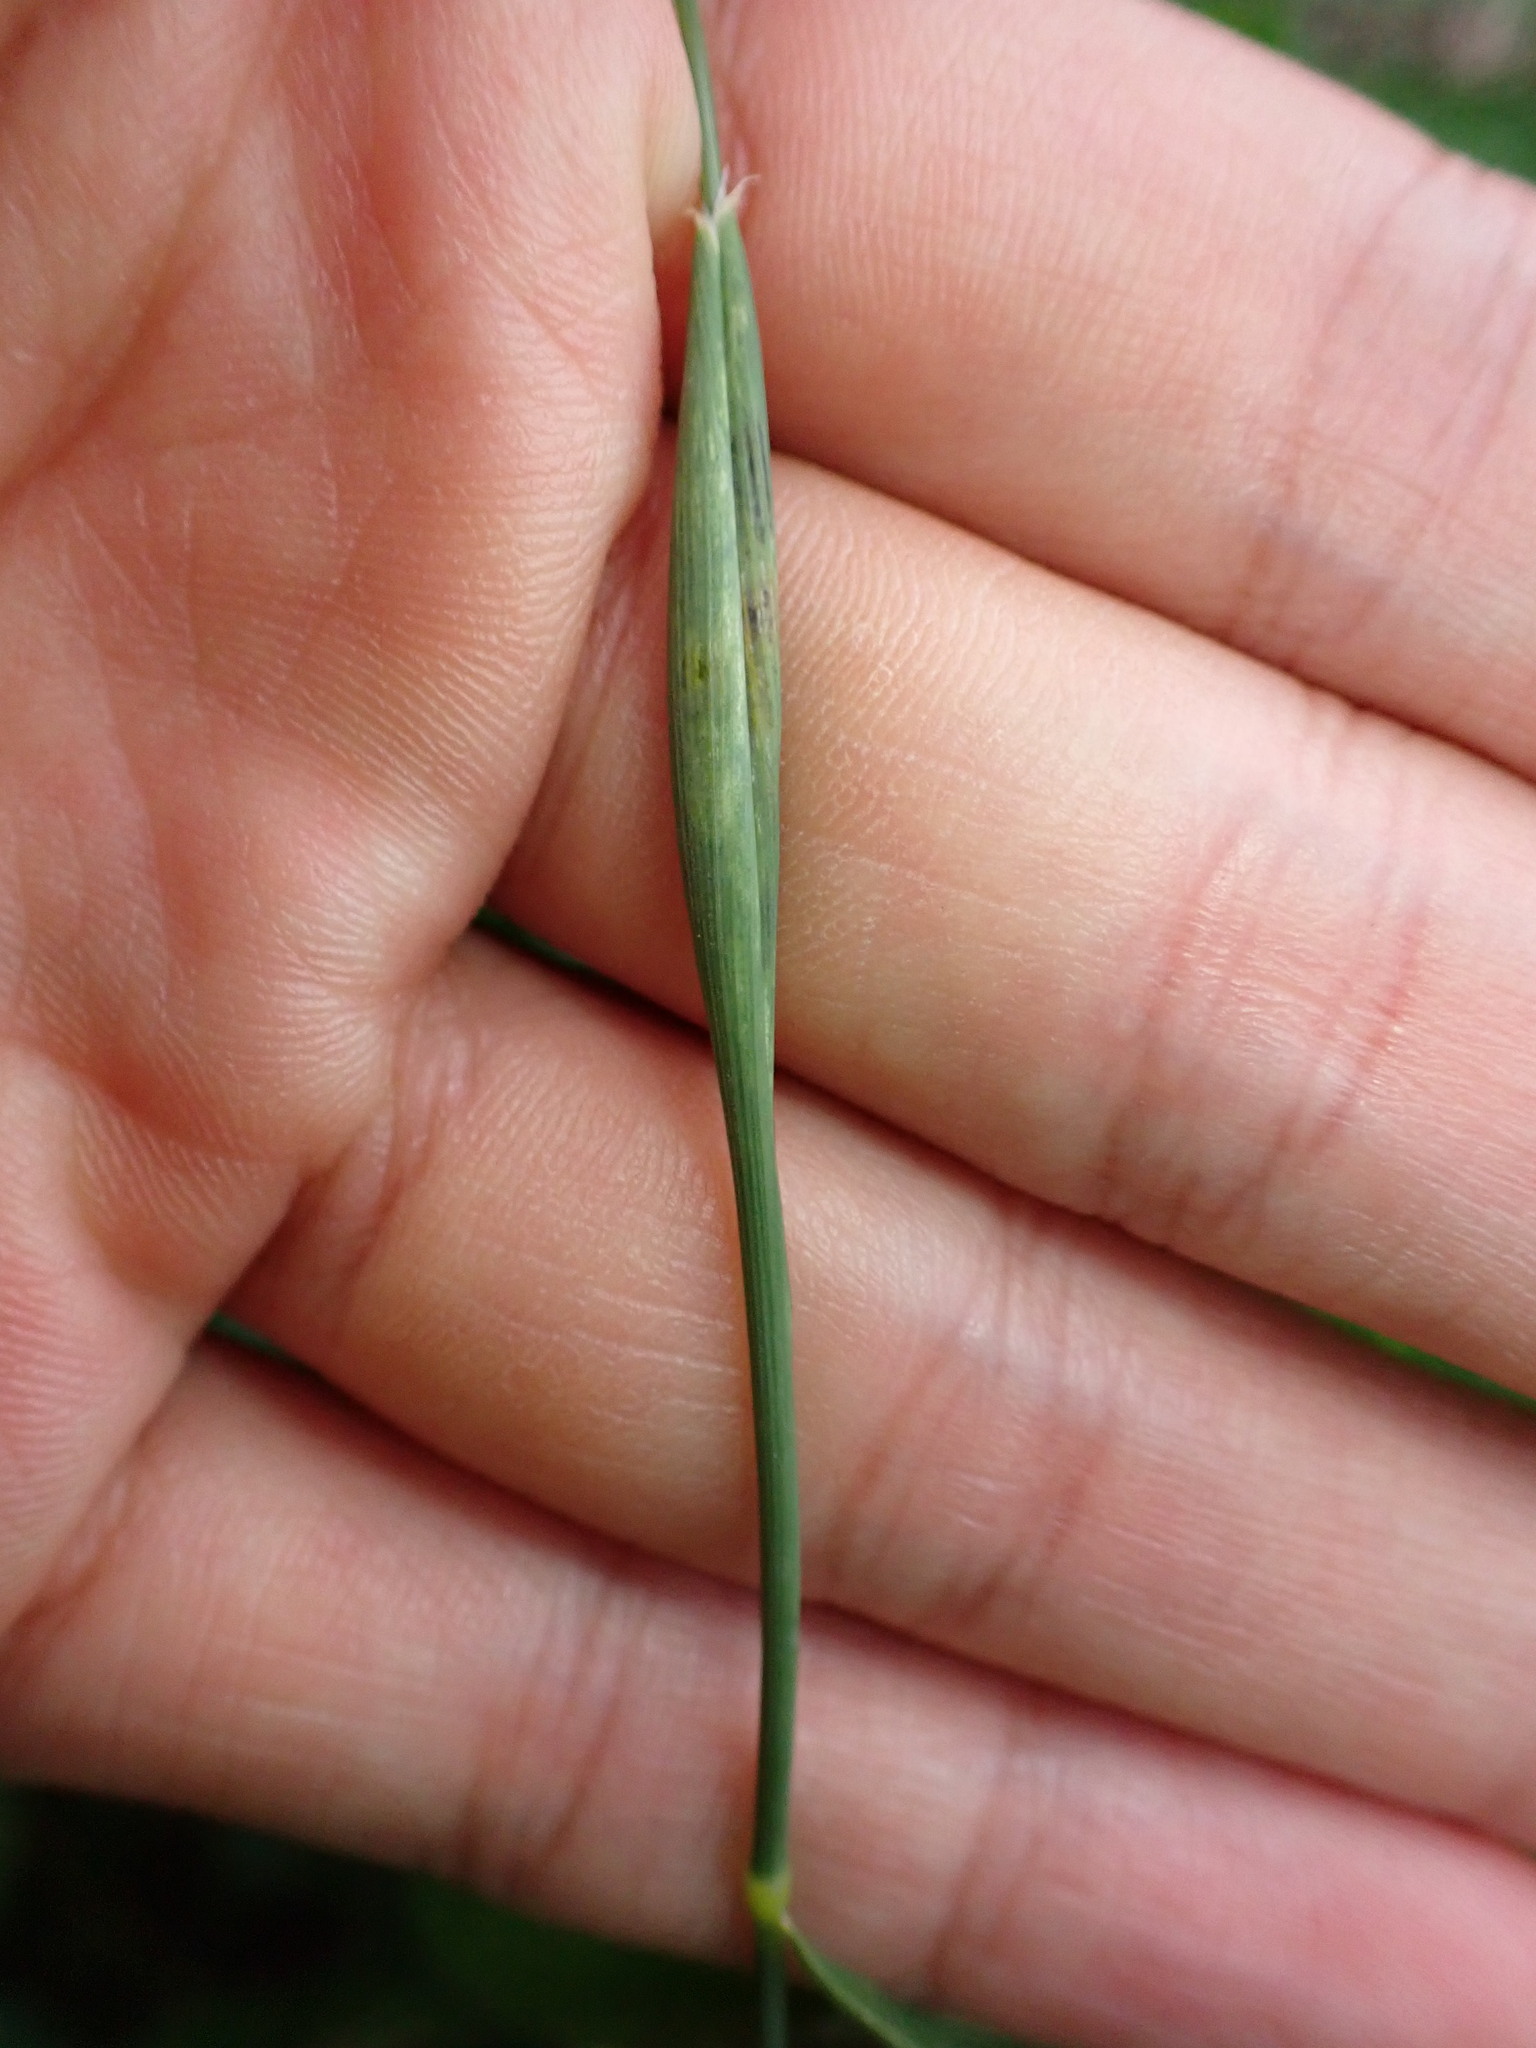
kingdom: Plantae
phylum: Tracheophyta
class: Liliopsida
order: Poales
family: Poaceae
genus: Phalaris
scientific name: Phalaris canariensis
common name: Annual canarygrass
